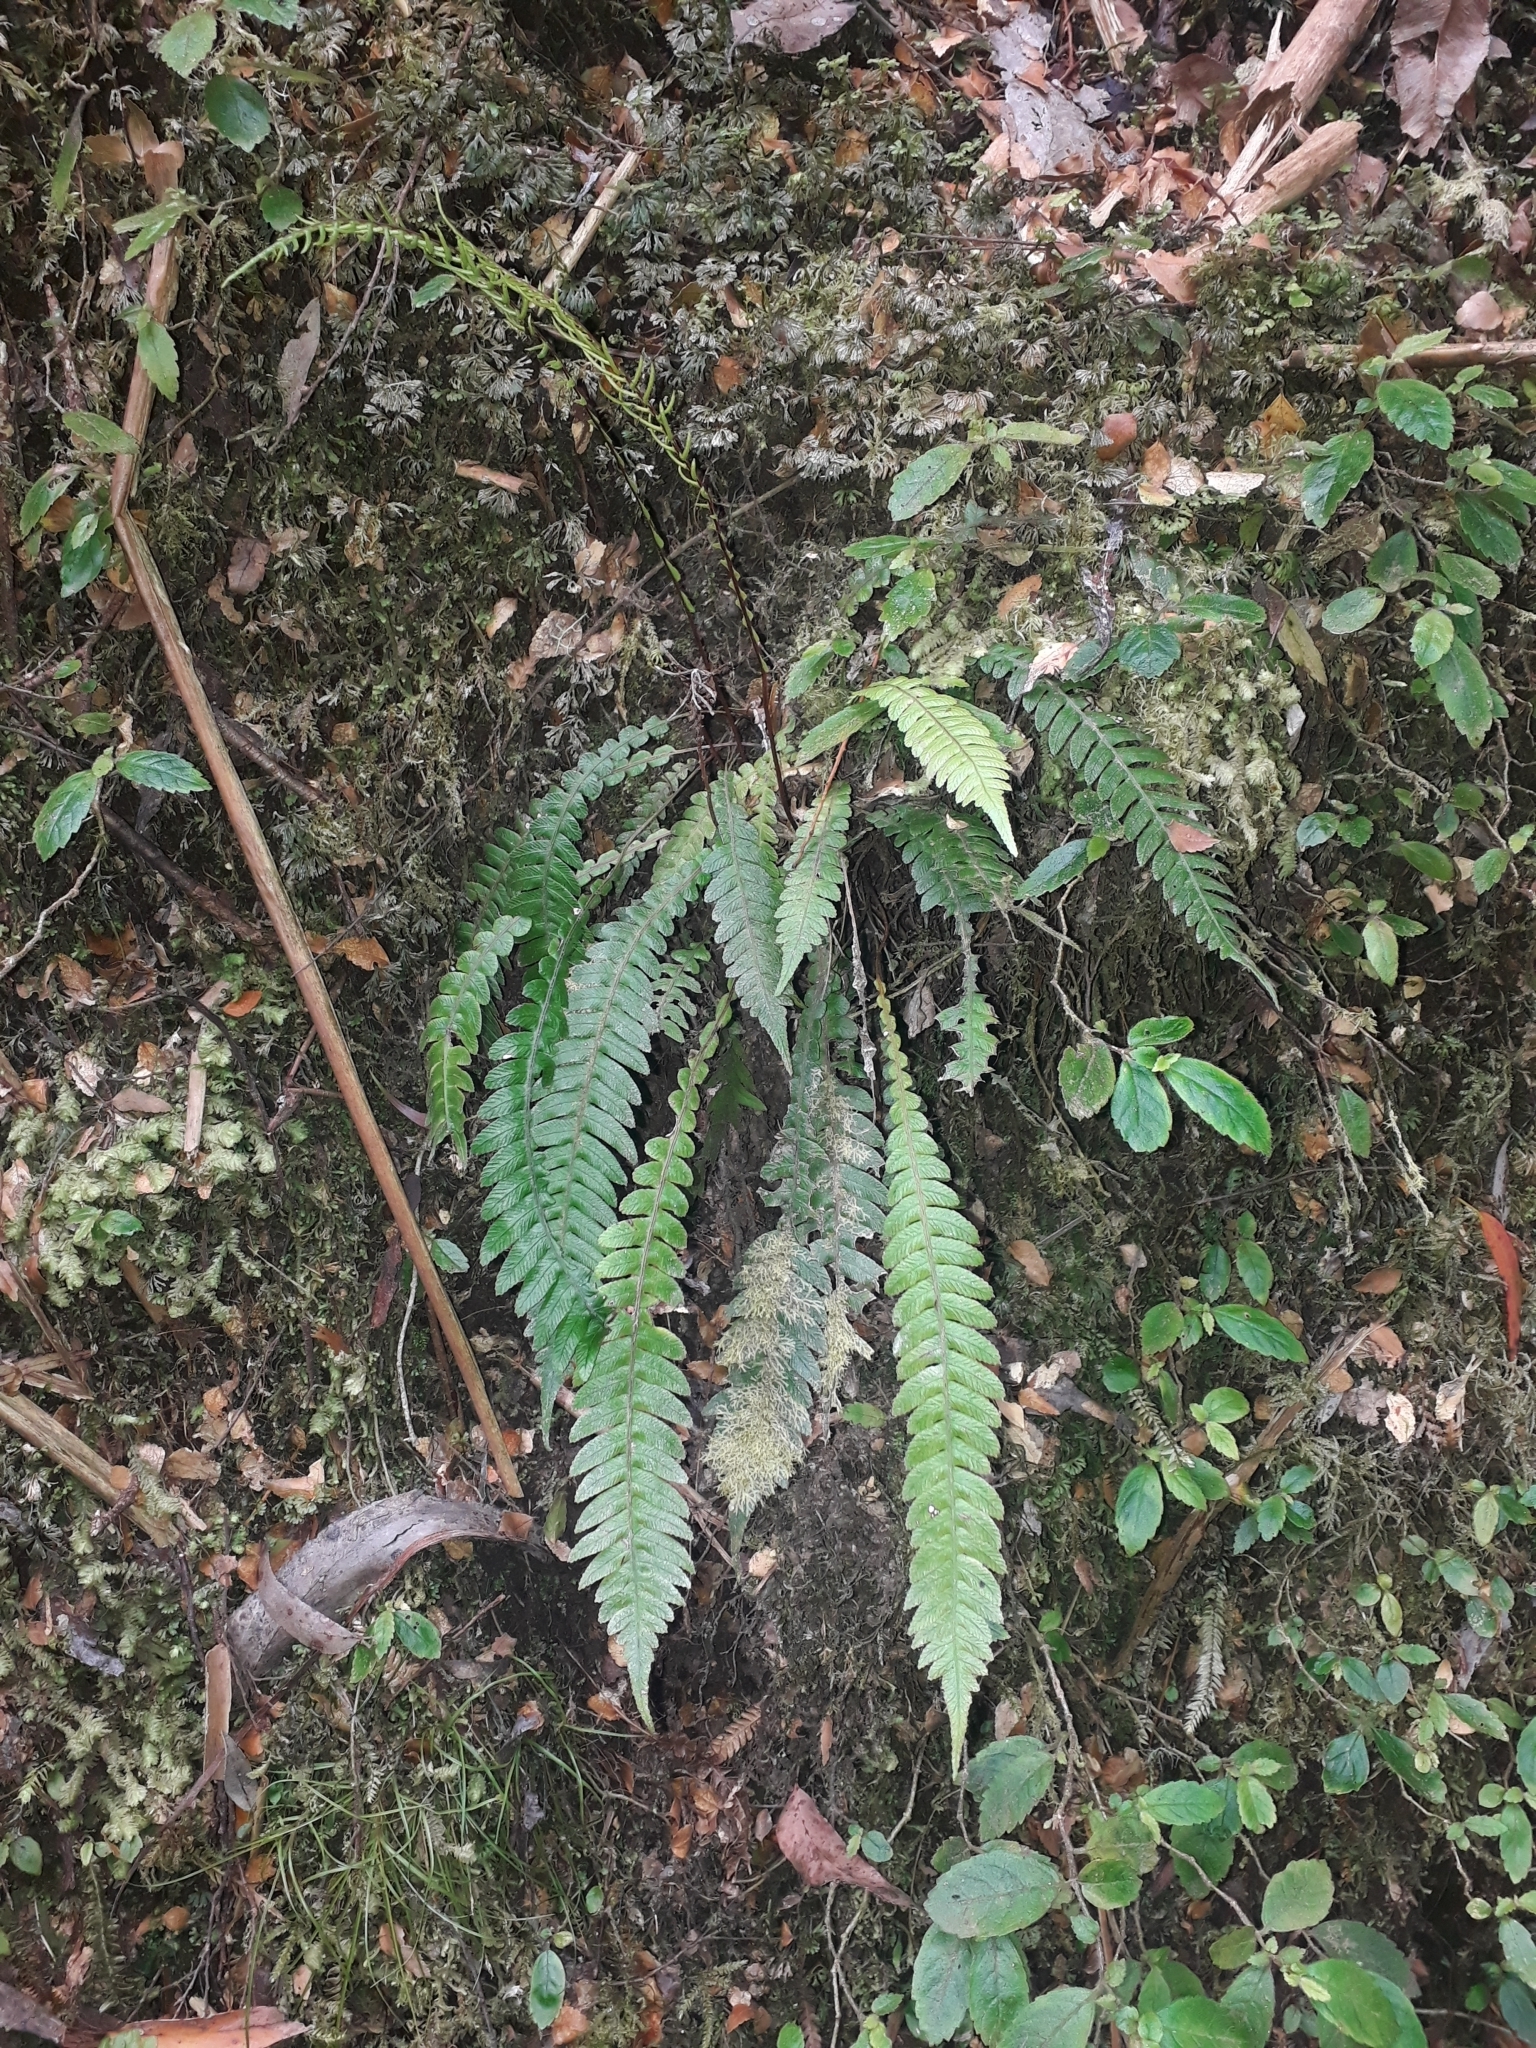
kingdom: Plantae
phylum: Tracheophyta
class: Polypodiopsida
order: Polypodiales
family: Blechnaceae
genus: Austroblechnum
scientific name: Austroblechnum lanceolatum
